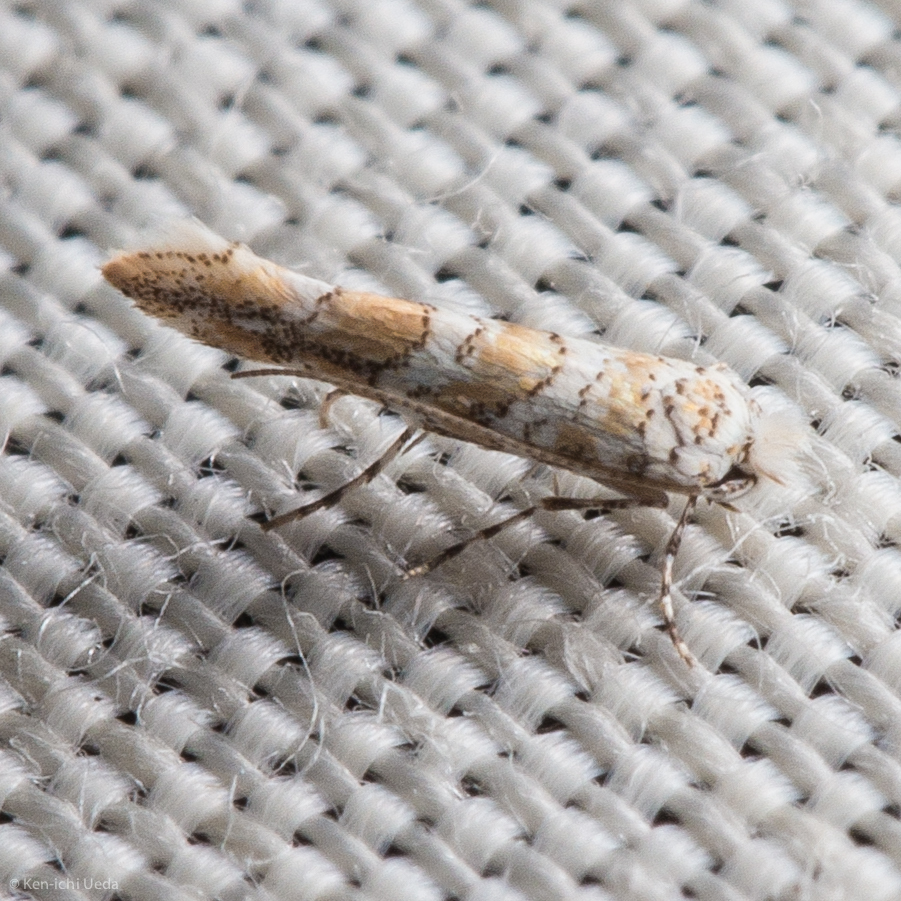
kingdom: Animalia
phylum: Arthropoda
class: Insecta
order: Lepidoptera
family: Gracillariidae
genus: Cameraria
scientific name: Cameraria pentekes
